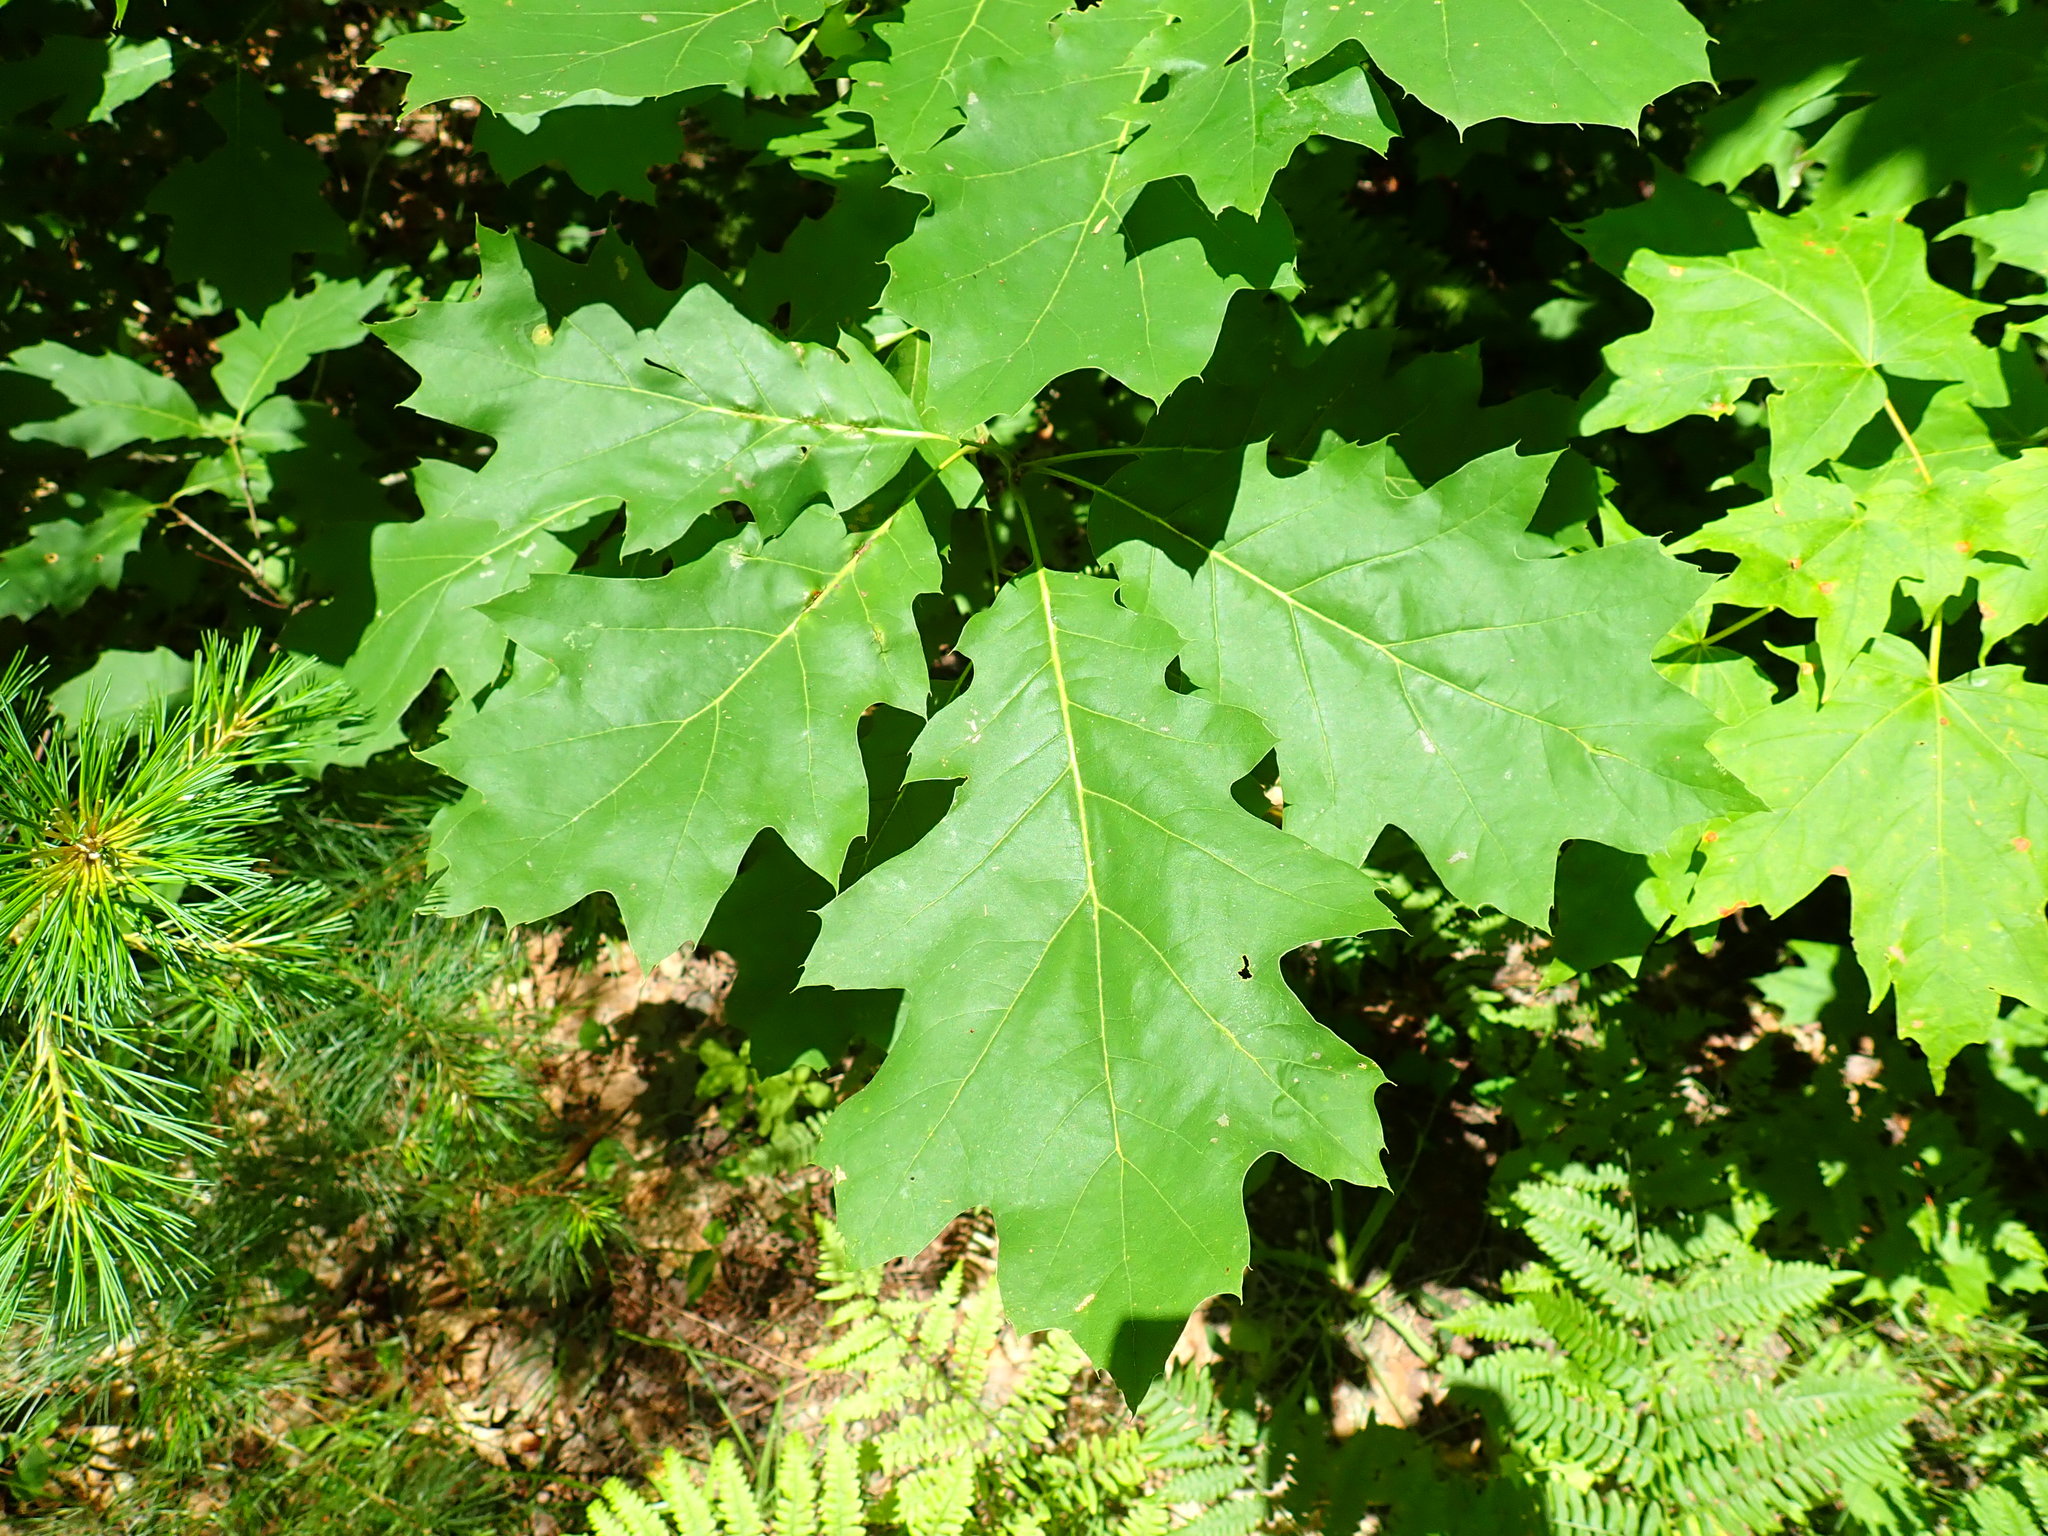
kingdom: Plantae
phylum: Tracheophyta
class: Magnoliopsida
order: Fagales
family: Fagaceae
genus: Quercus
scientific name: Quercus rubra
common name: Red oak
